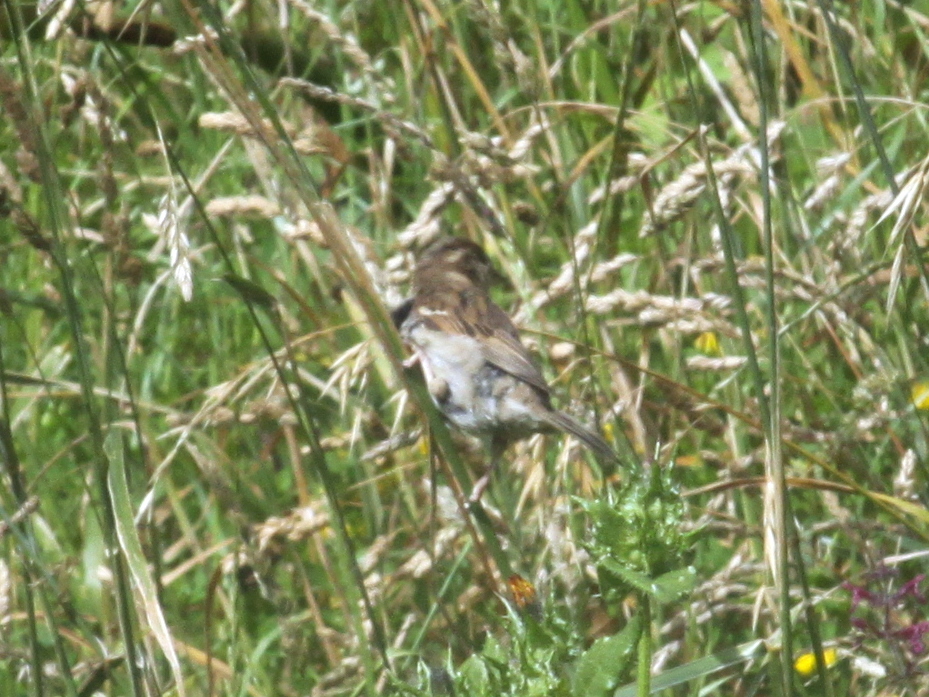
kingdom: Animalia
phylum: Chordata
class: Aves
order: Passeriformes
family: Passeridae
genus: Passer
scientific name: Passer domesticus
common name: House sparrow
